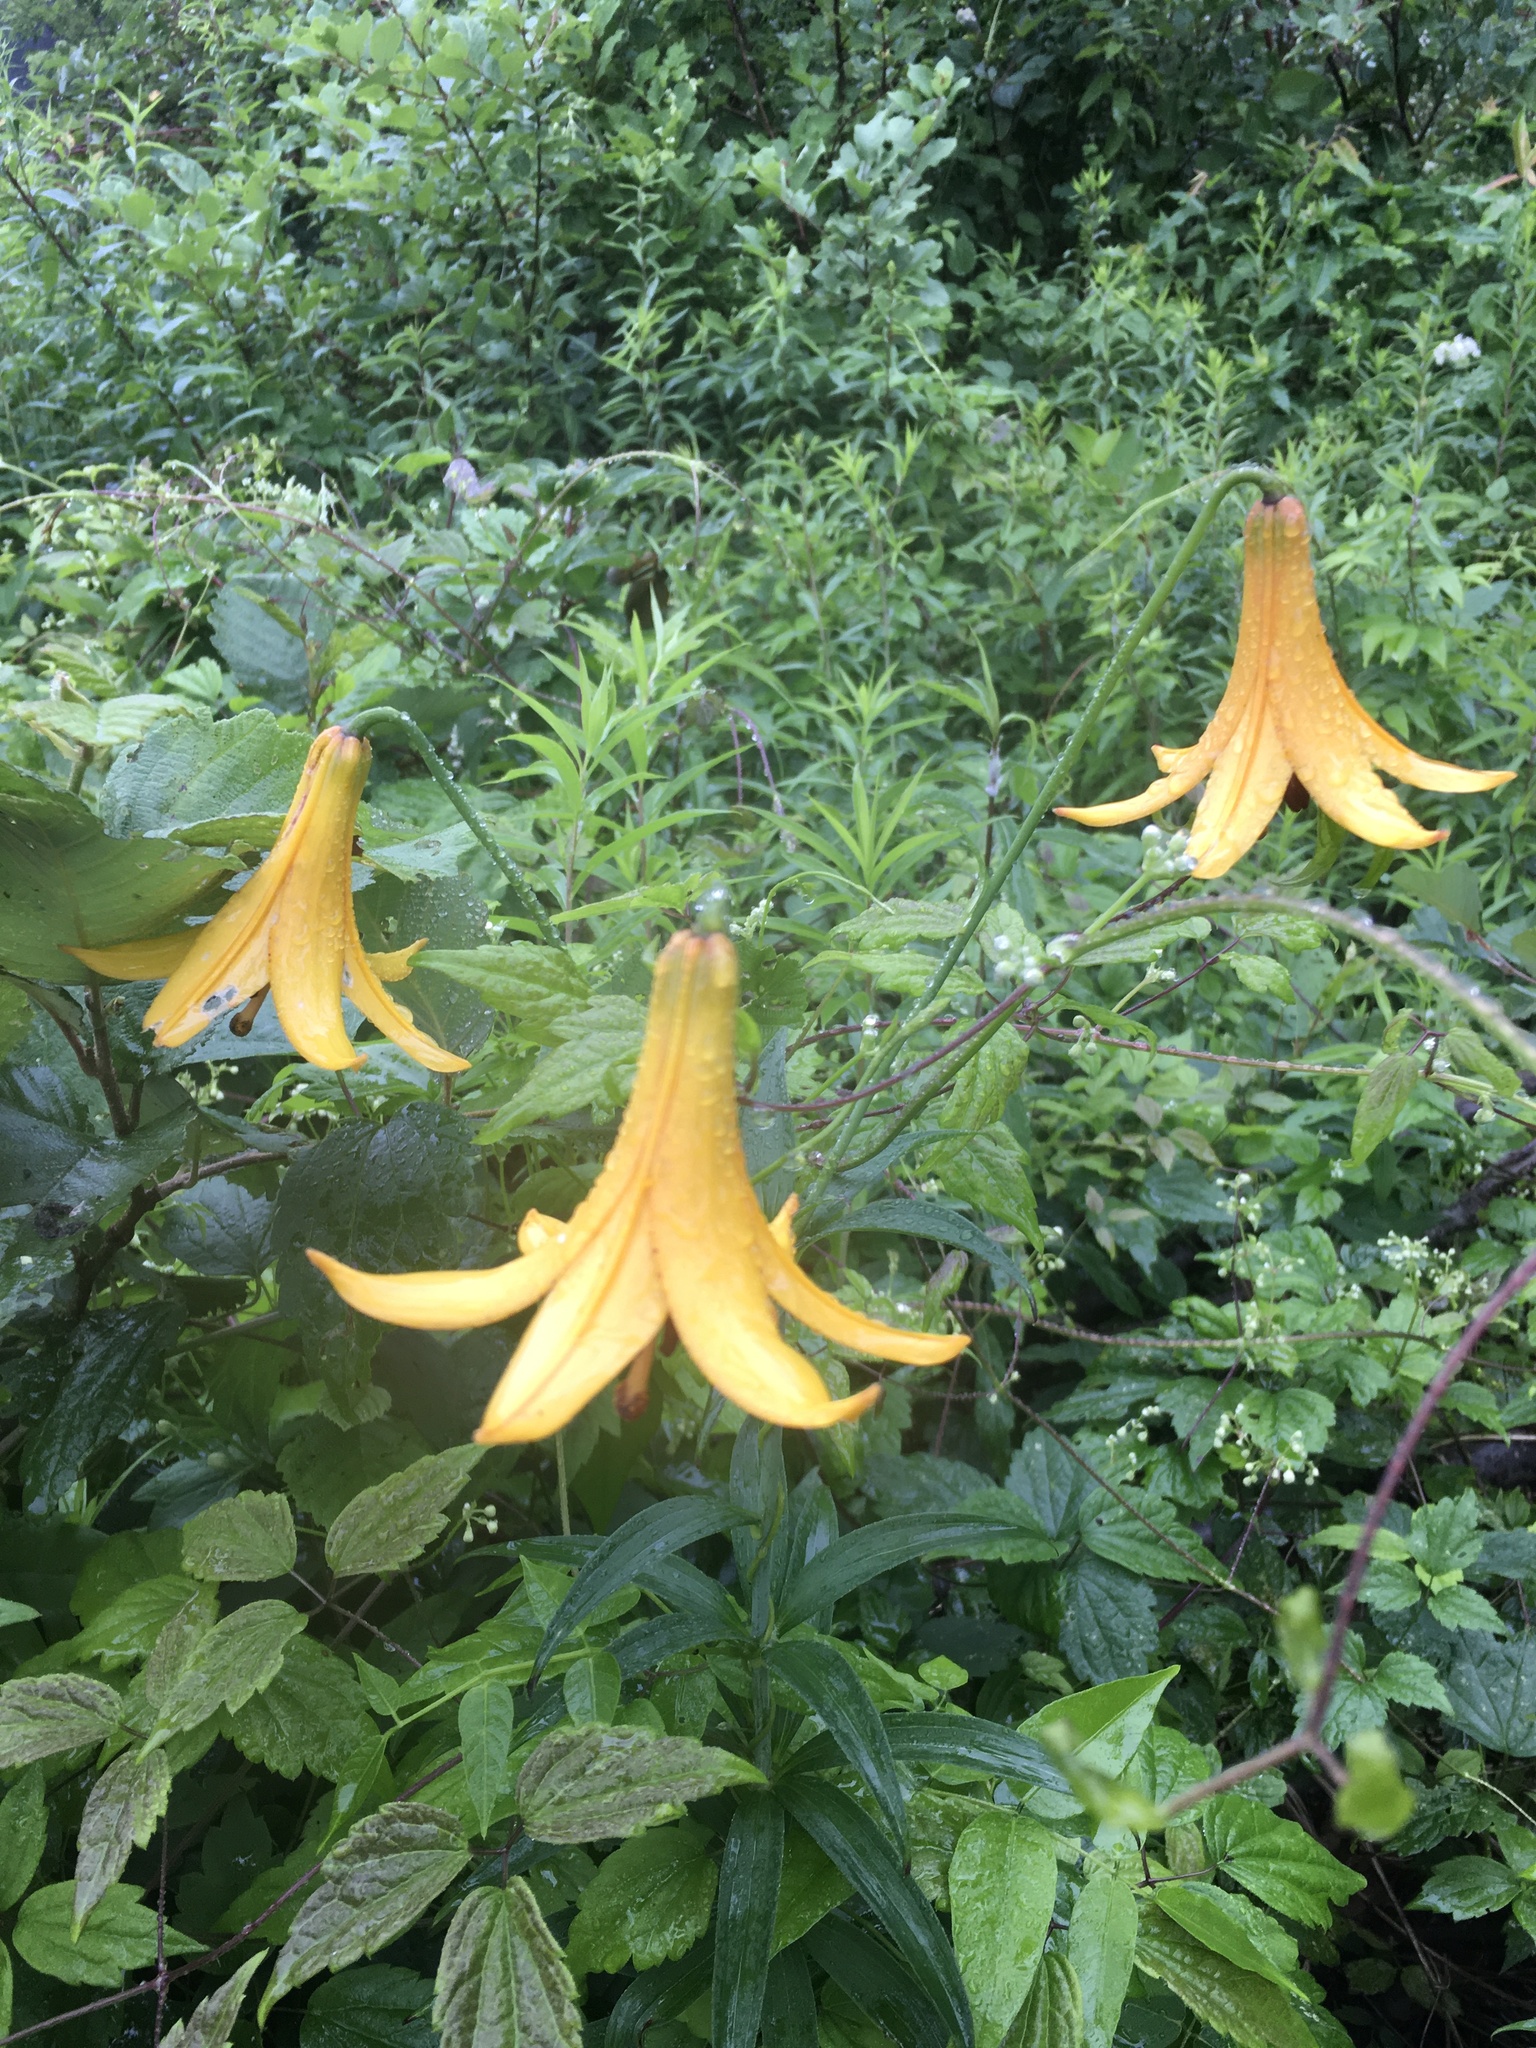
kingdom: Plantae
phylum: Tracheophyta
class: Liliopsida
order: Liliales
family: Liliaceae
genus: Lilium
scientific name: Lilium canadense
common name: Canada lily
